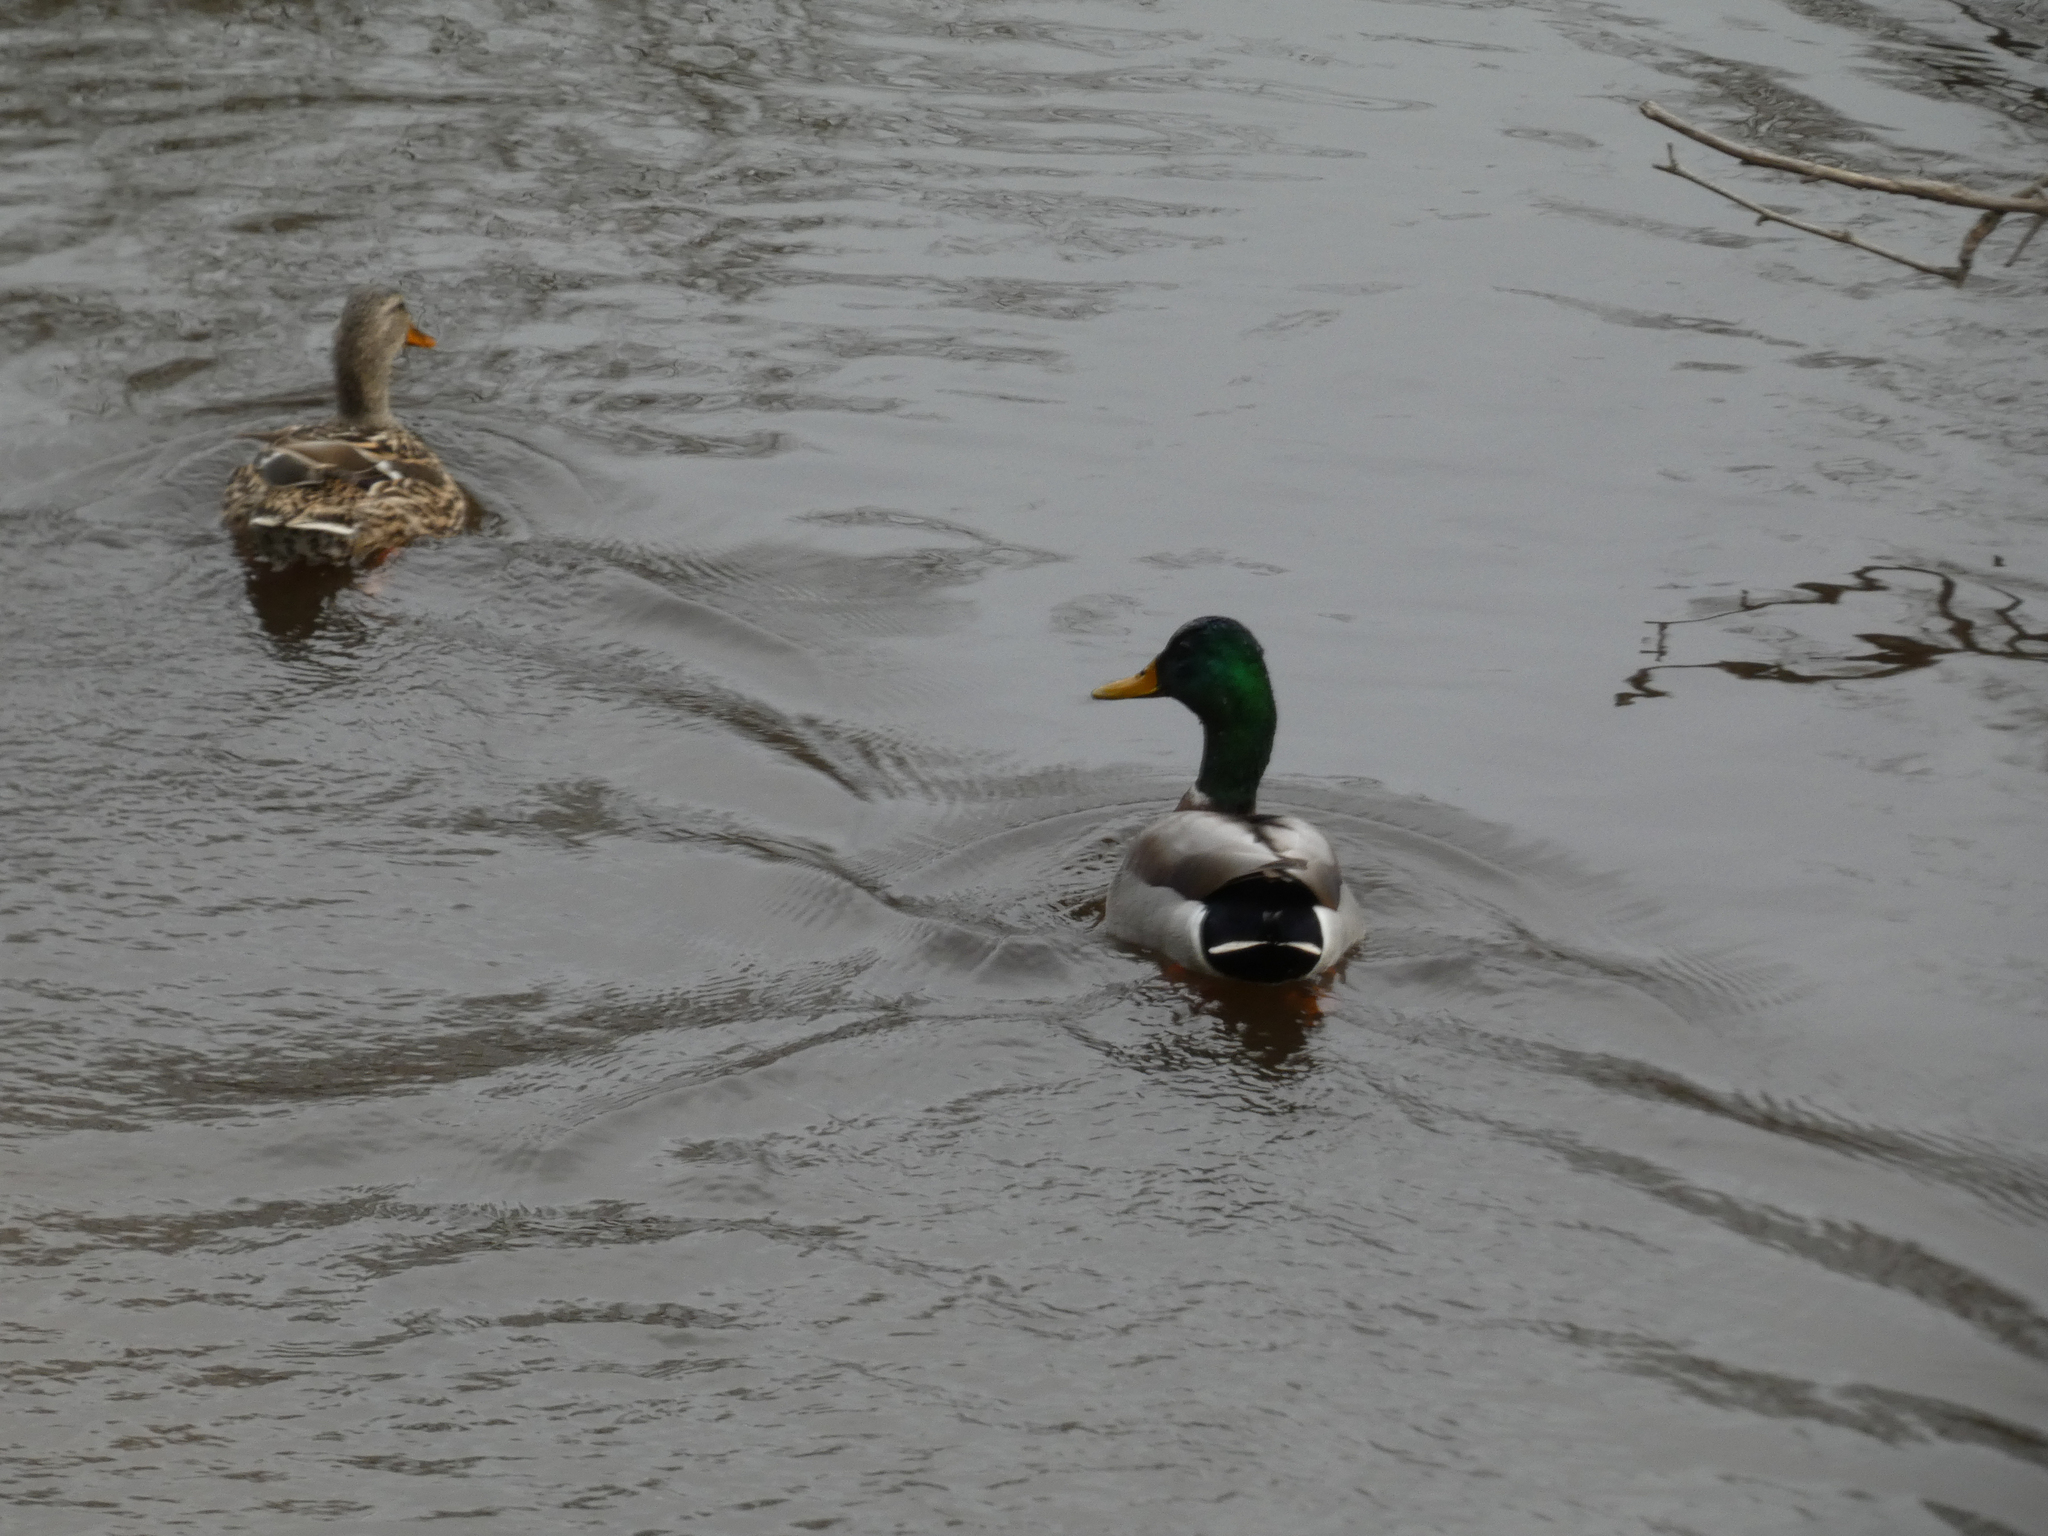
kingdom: Animalia
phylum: Chordata
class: Aves
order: Anseriformes
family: Anatidae
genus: Anas
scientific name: Anas platyrhynchos
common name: Mallard
